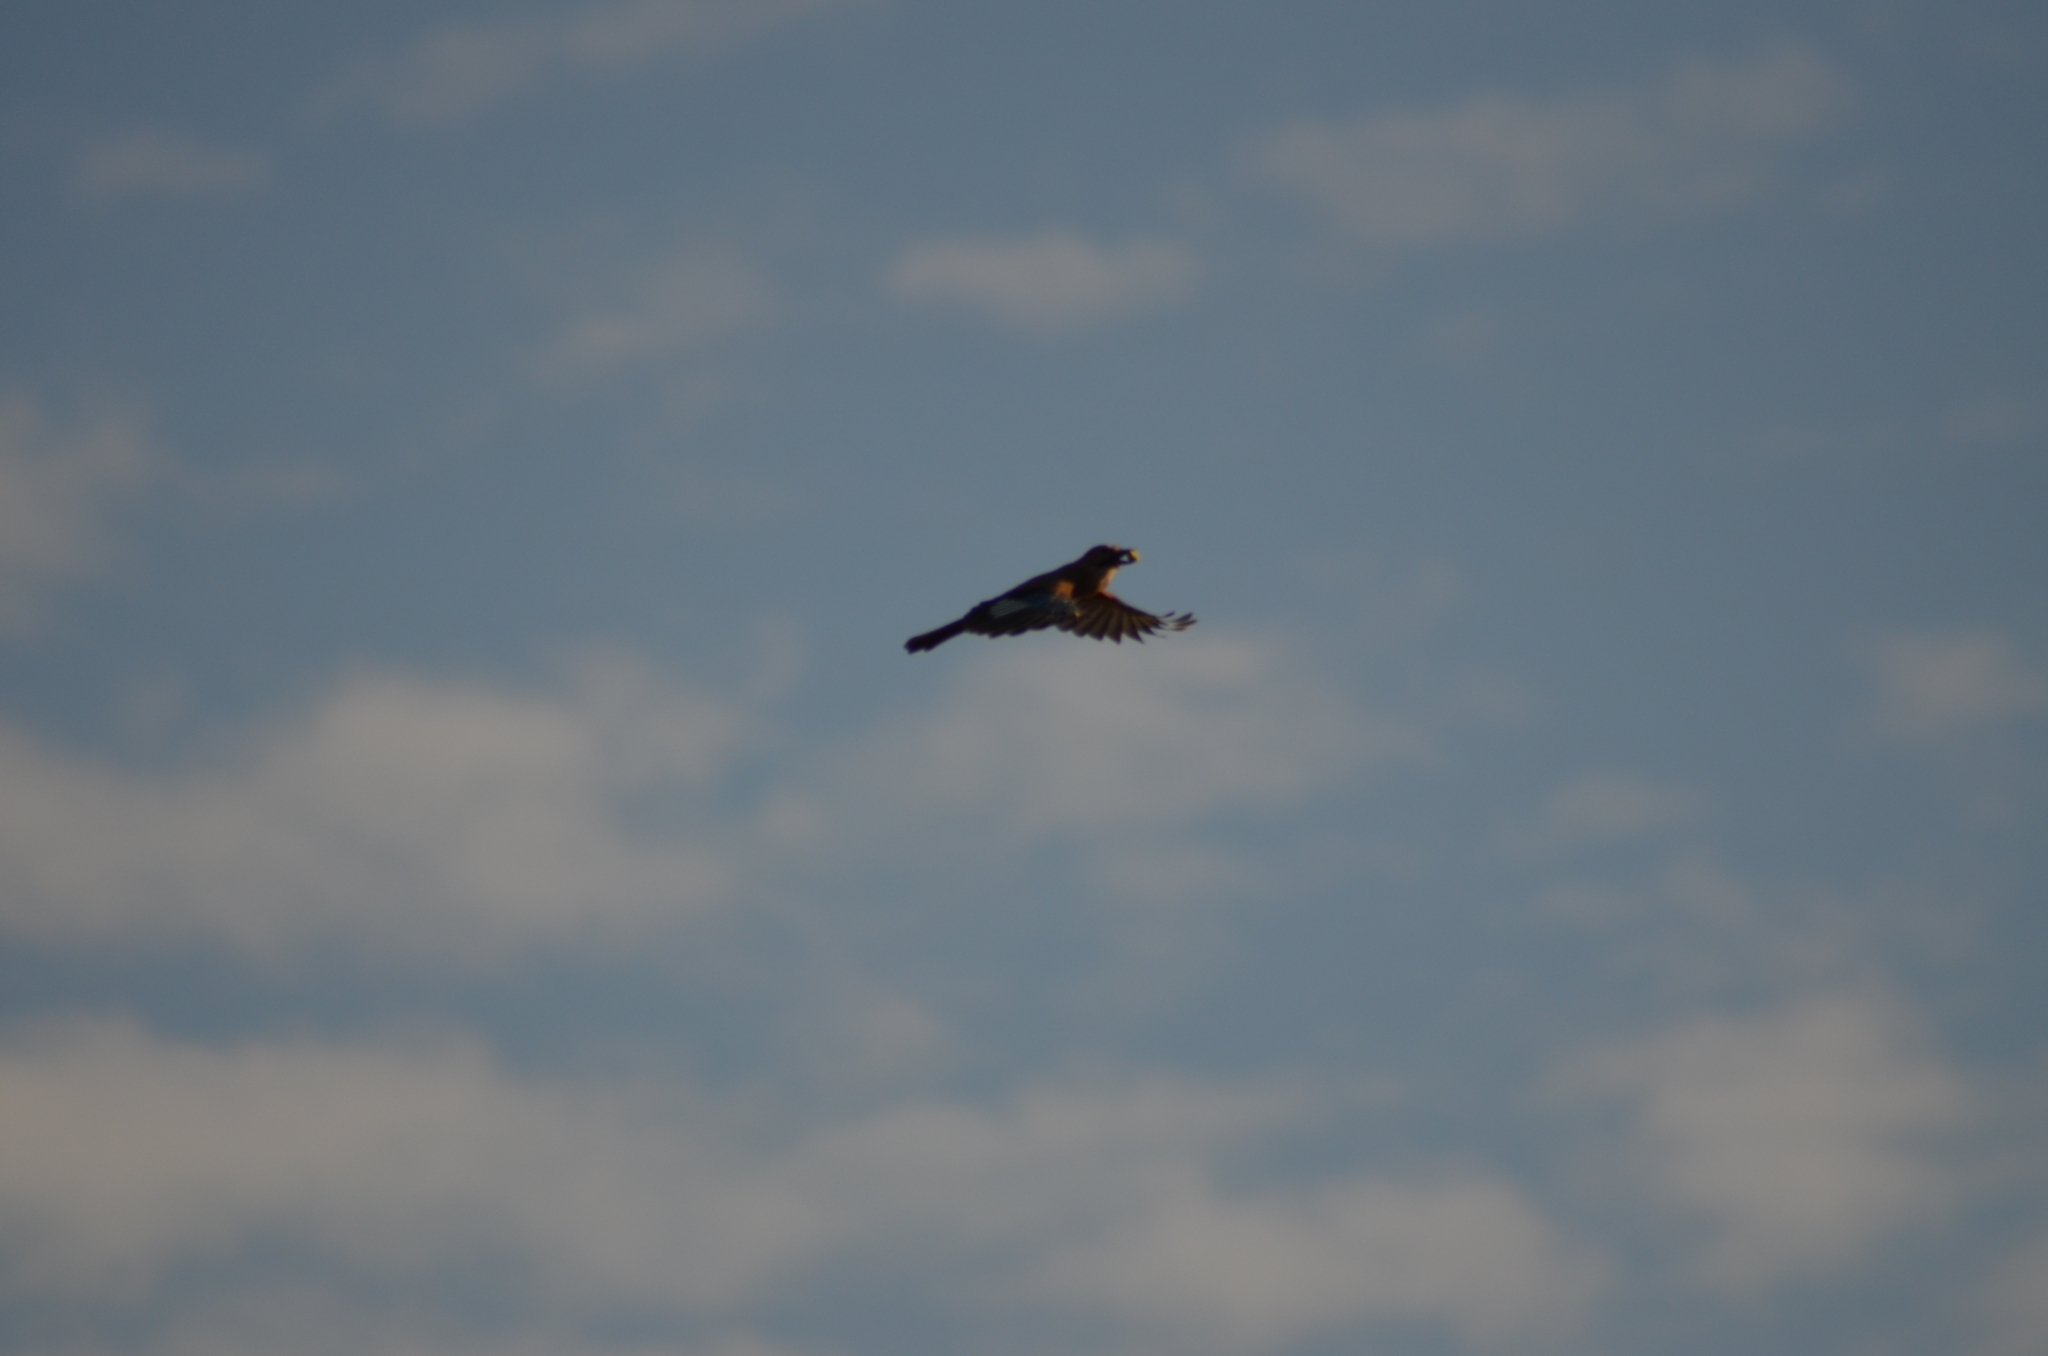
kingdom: Animalia
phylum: Chordata
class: Aves
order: Passeriformes
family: Corvidae
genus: Garrulus
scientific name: Garrulus glandarius
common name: Eurasian jay
